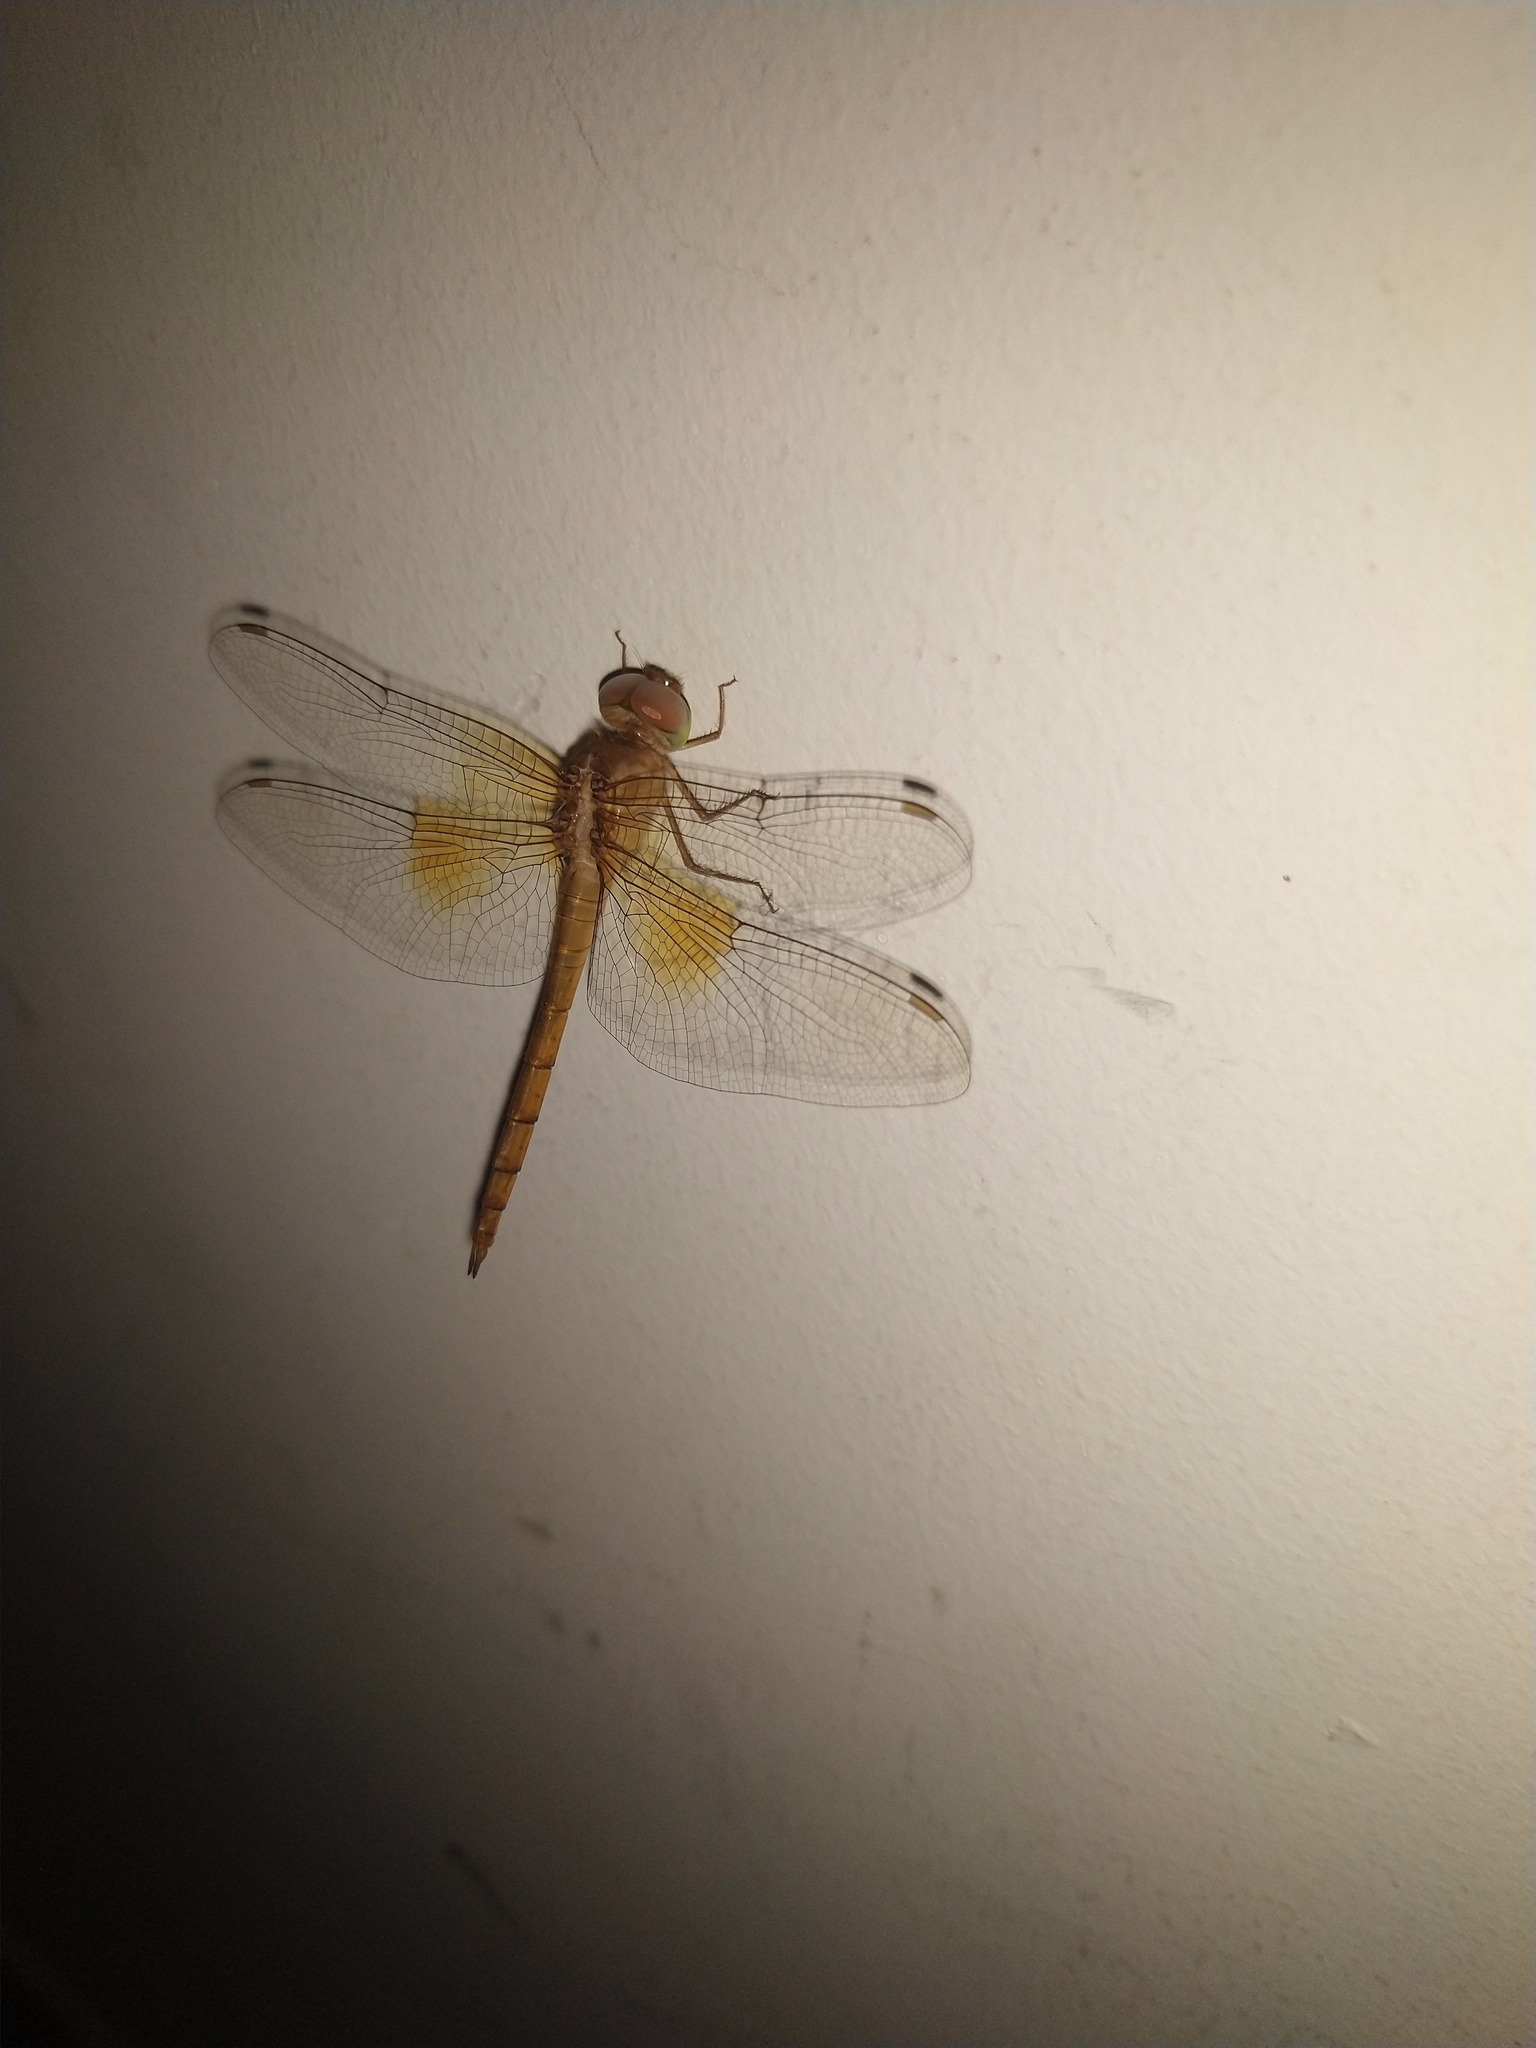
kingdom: Animalia
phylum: Arthropoda
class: Insecta
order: Odonata
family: Libellulidae
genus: Tholymis
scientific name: Tholymis tillarga
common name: Coral-tailed cloud wing
